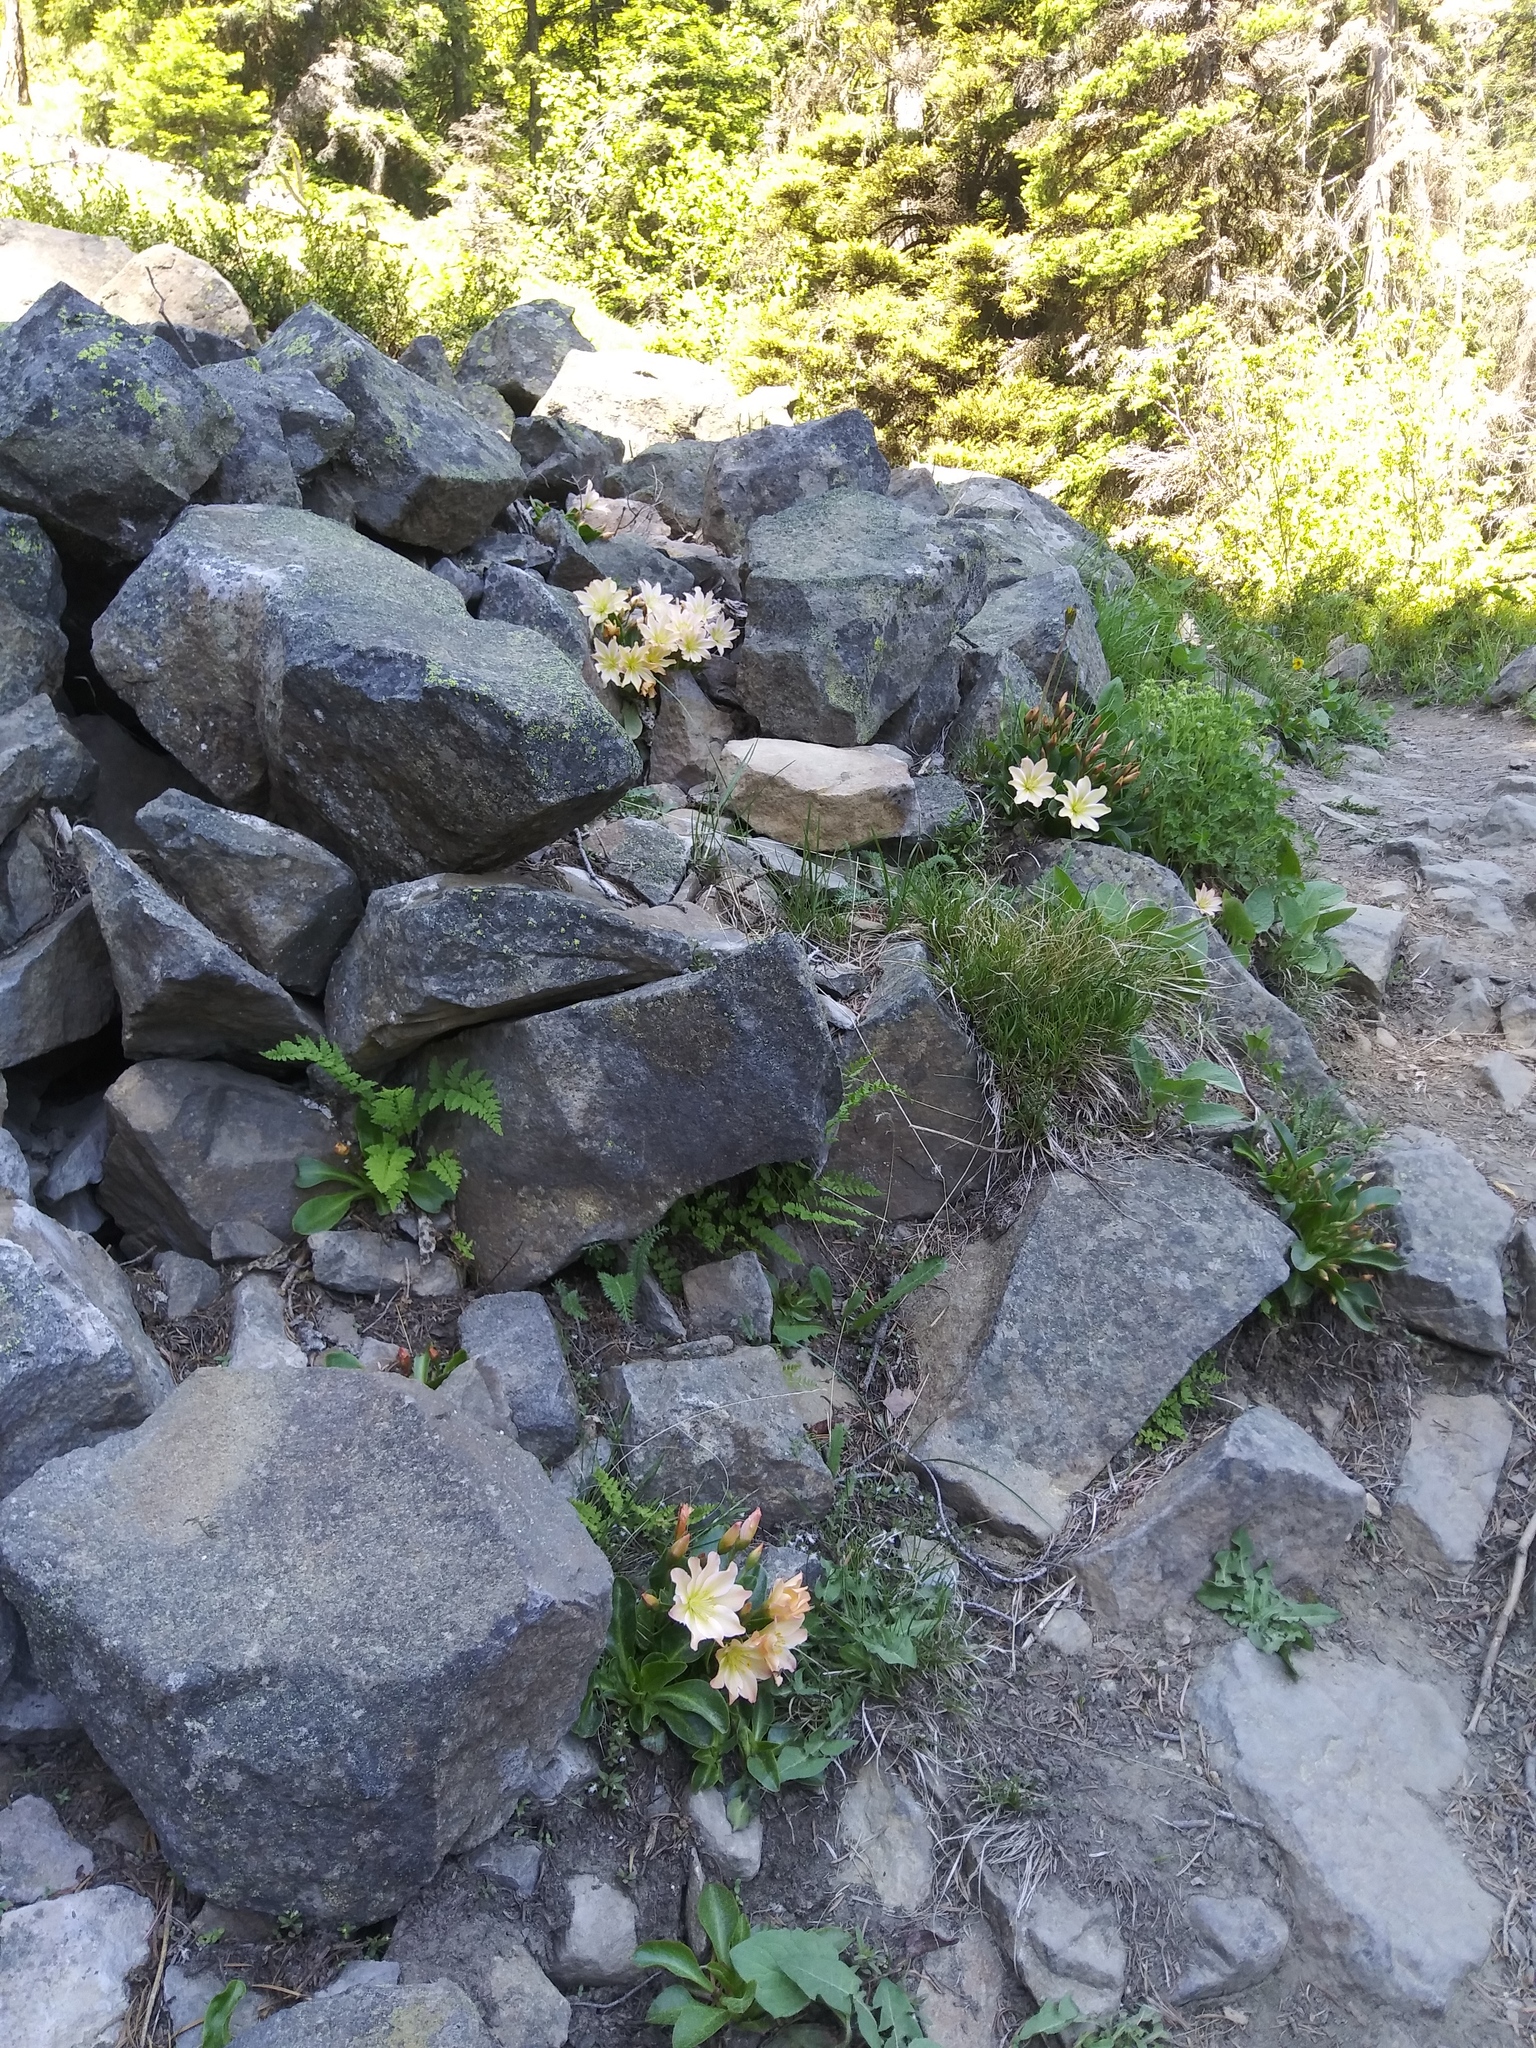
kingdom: Plantae
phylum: Tracheophyta
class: Magnoliopsida
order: Caryophyllales
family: Montiaceae
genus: Lewisiopsis
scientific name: Lewisiopsis tweedyi
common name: Tweedy's pussypaws
